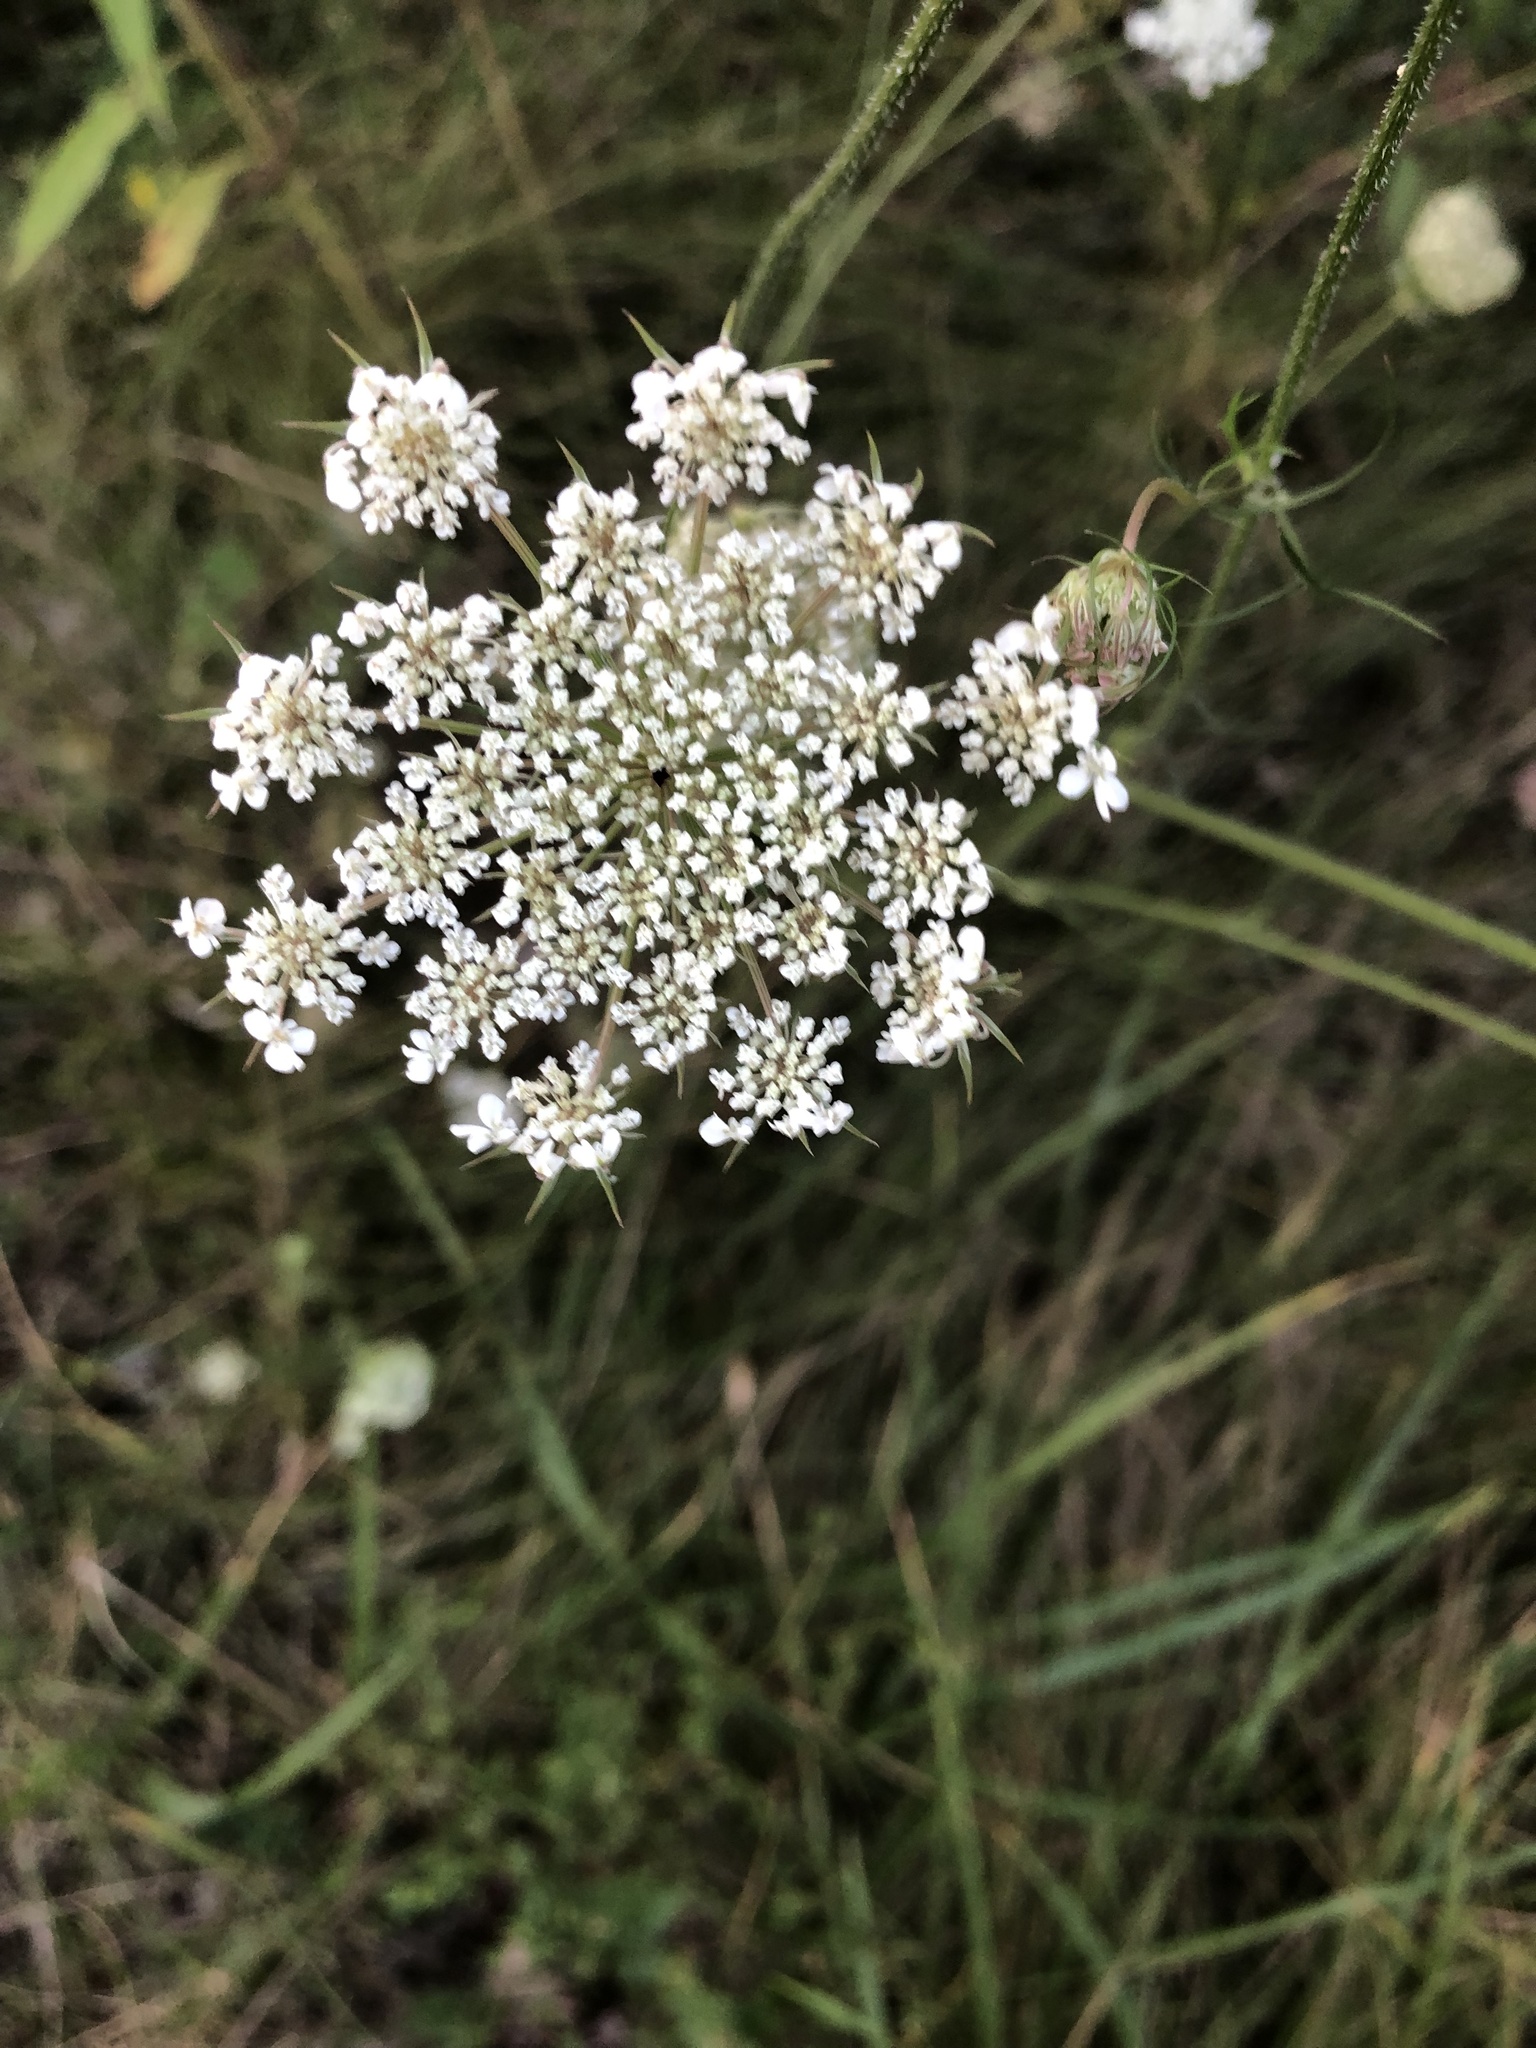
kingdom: Plantae
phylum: Tracheophyta
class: Magnoliopsida
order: Apiales
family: Apiaceae
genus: Daucus
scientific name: Daucus carota
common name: Wild carrot
